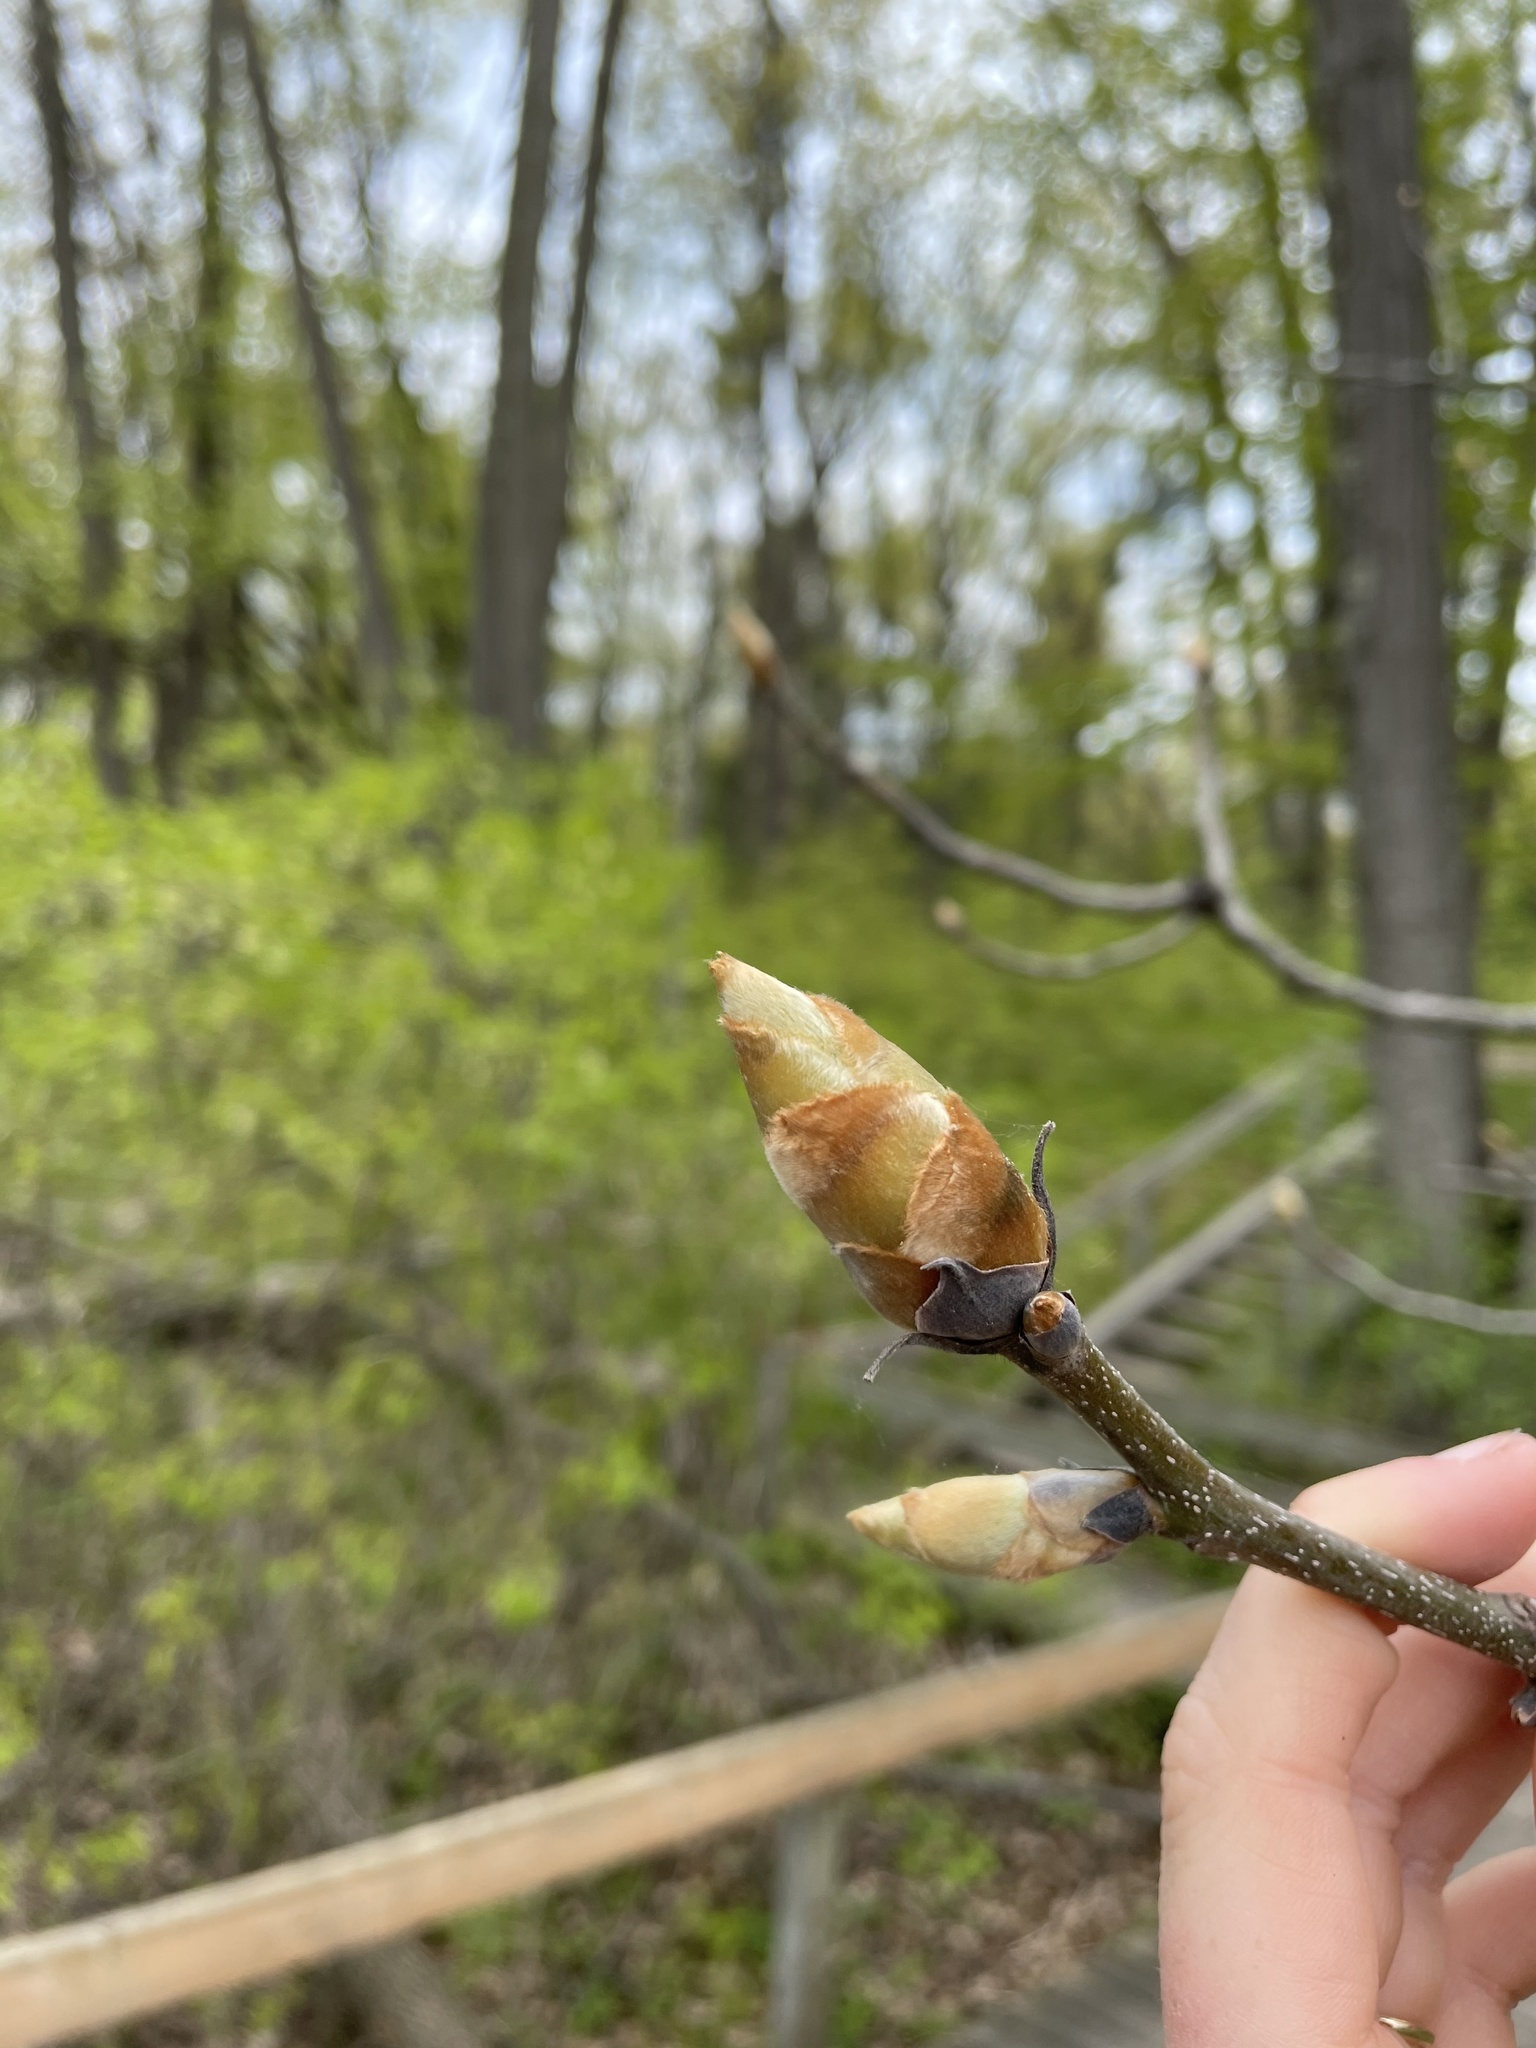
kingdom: Plantae
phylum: Tracheophyta
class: Magnoliopsida
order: Fagales
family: Juglandaceae
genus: Carya
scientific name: Carya ovata
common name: Shagbark hickory
